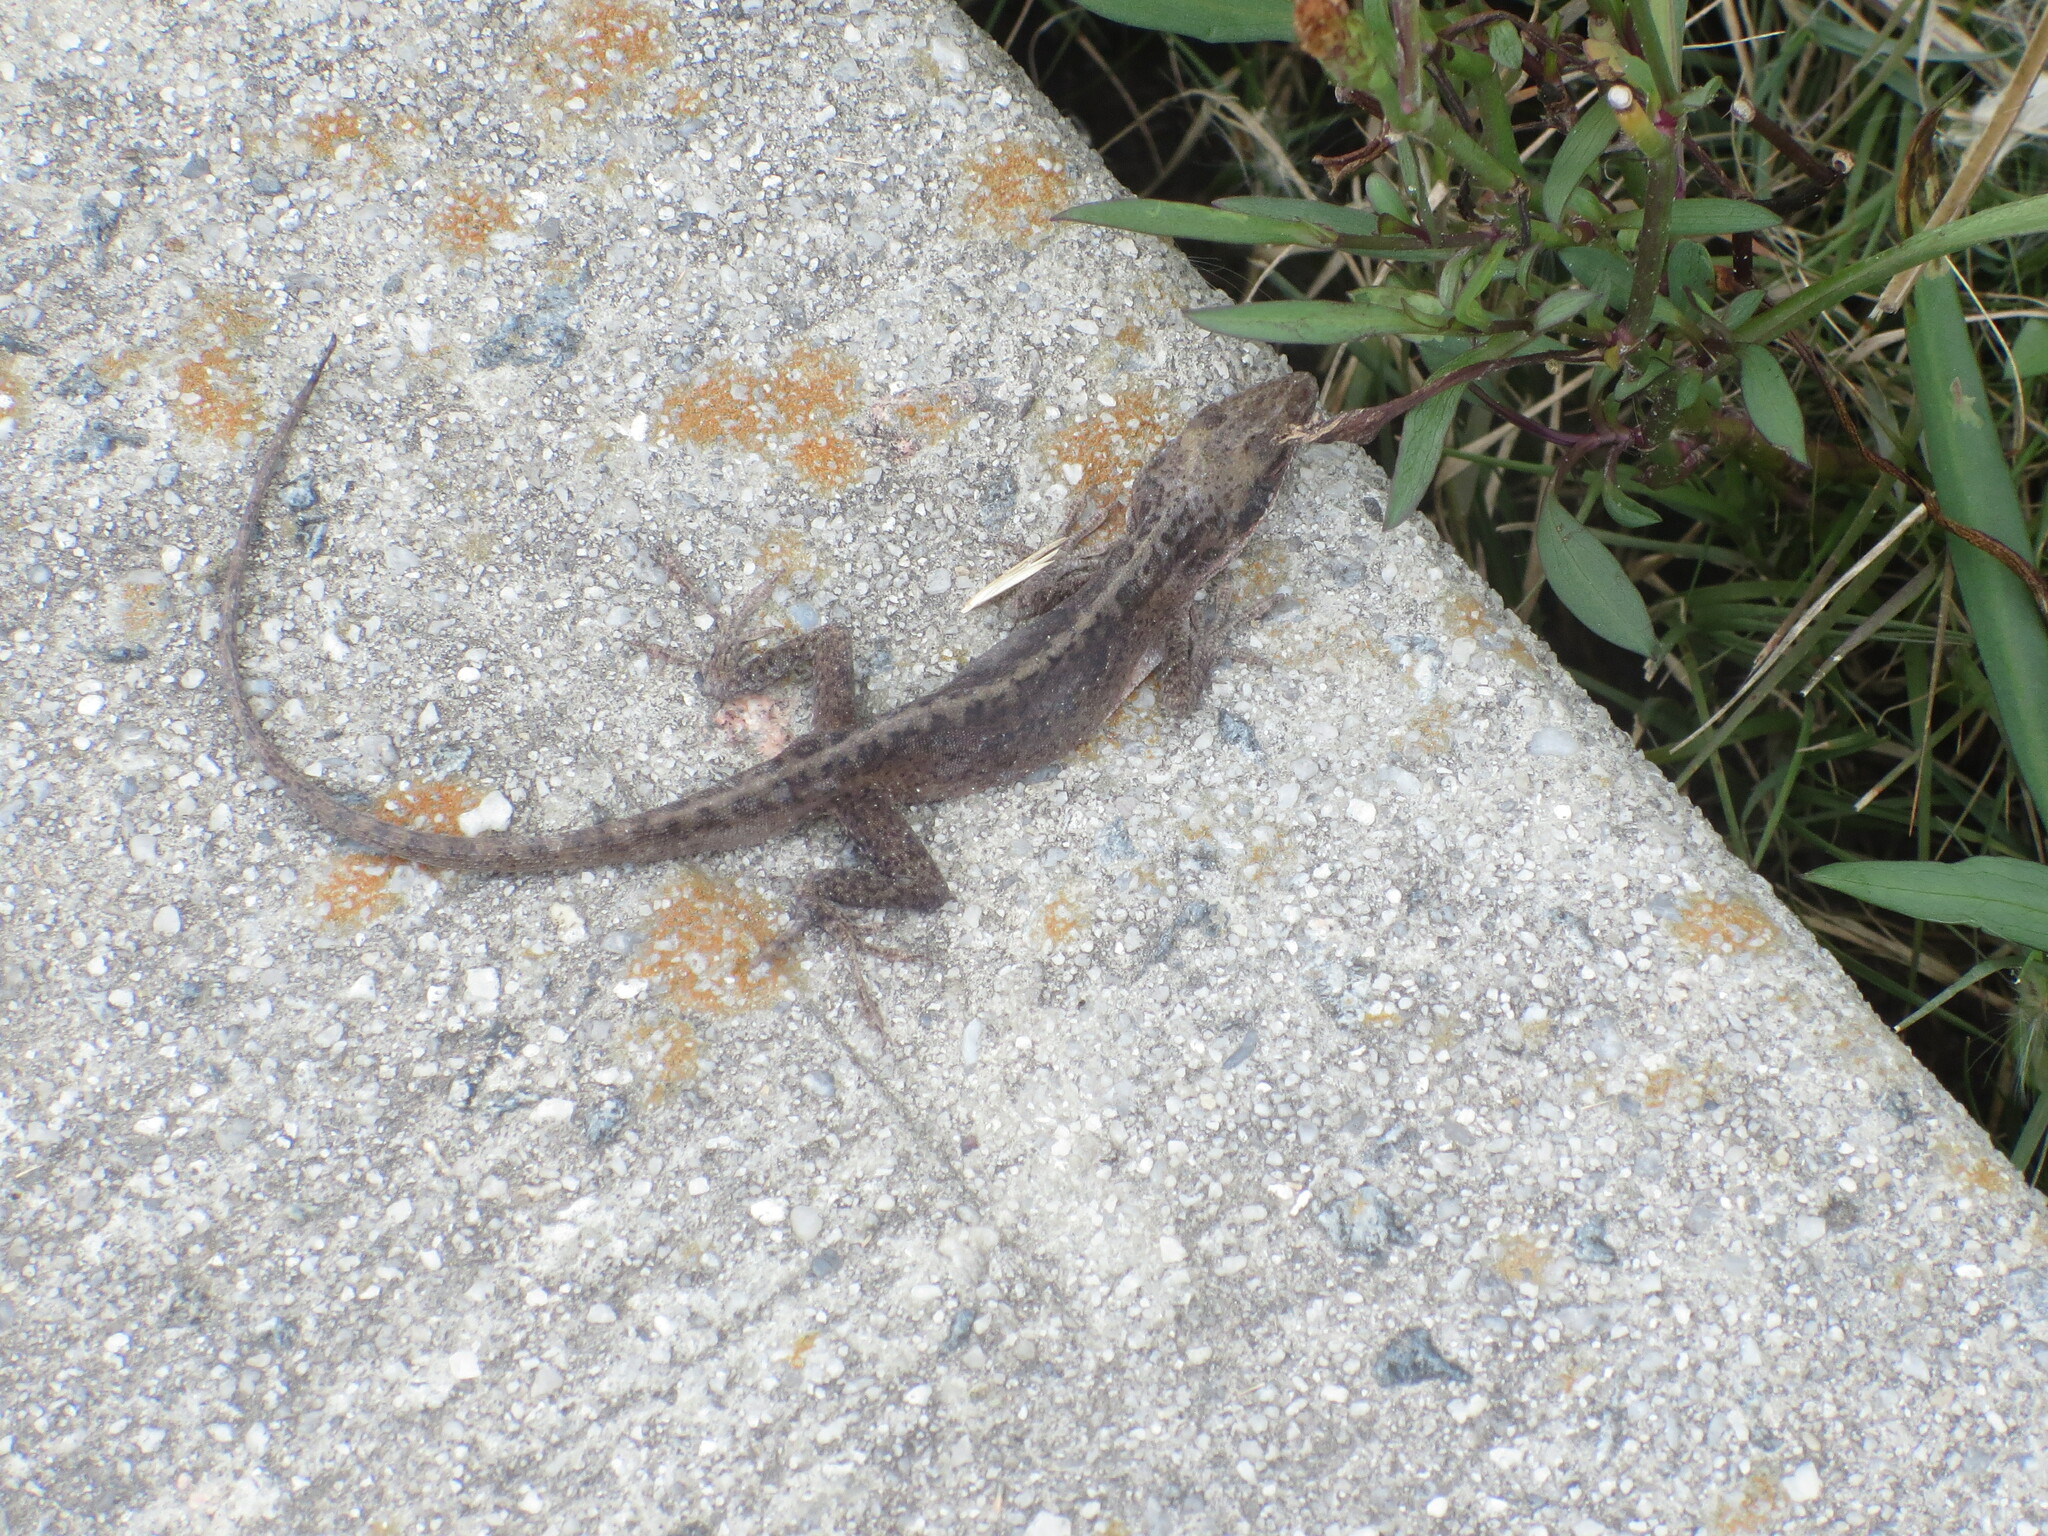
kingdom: Animalia
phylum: Chordata
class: Squamata
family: Dactyloidae
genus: Anolis
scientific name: Anolis carolinensis
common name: Green anole
